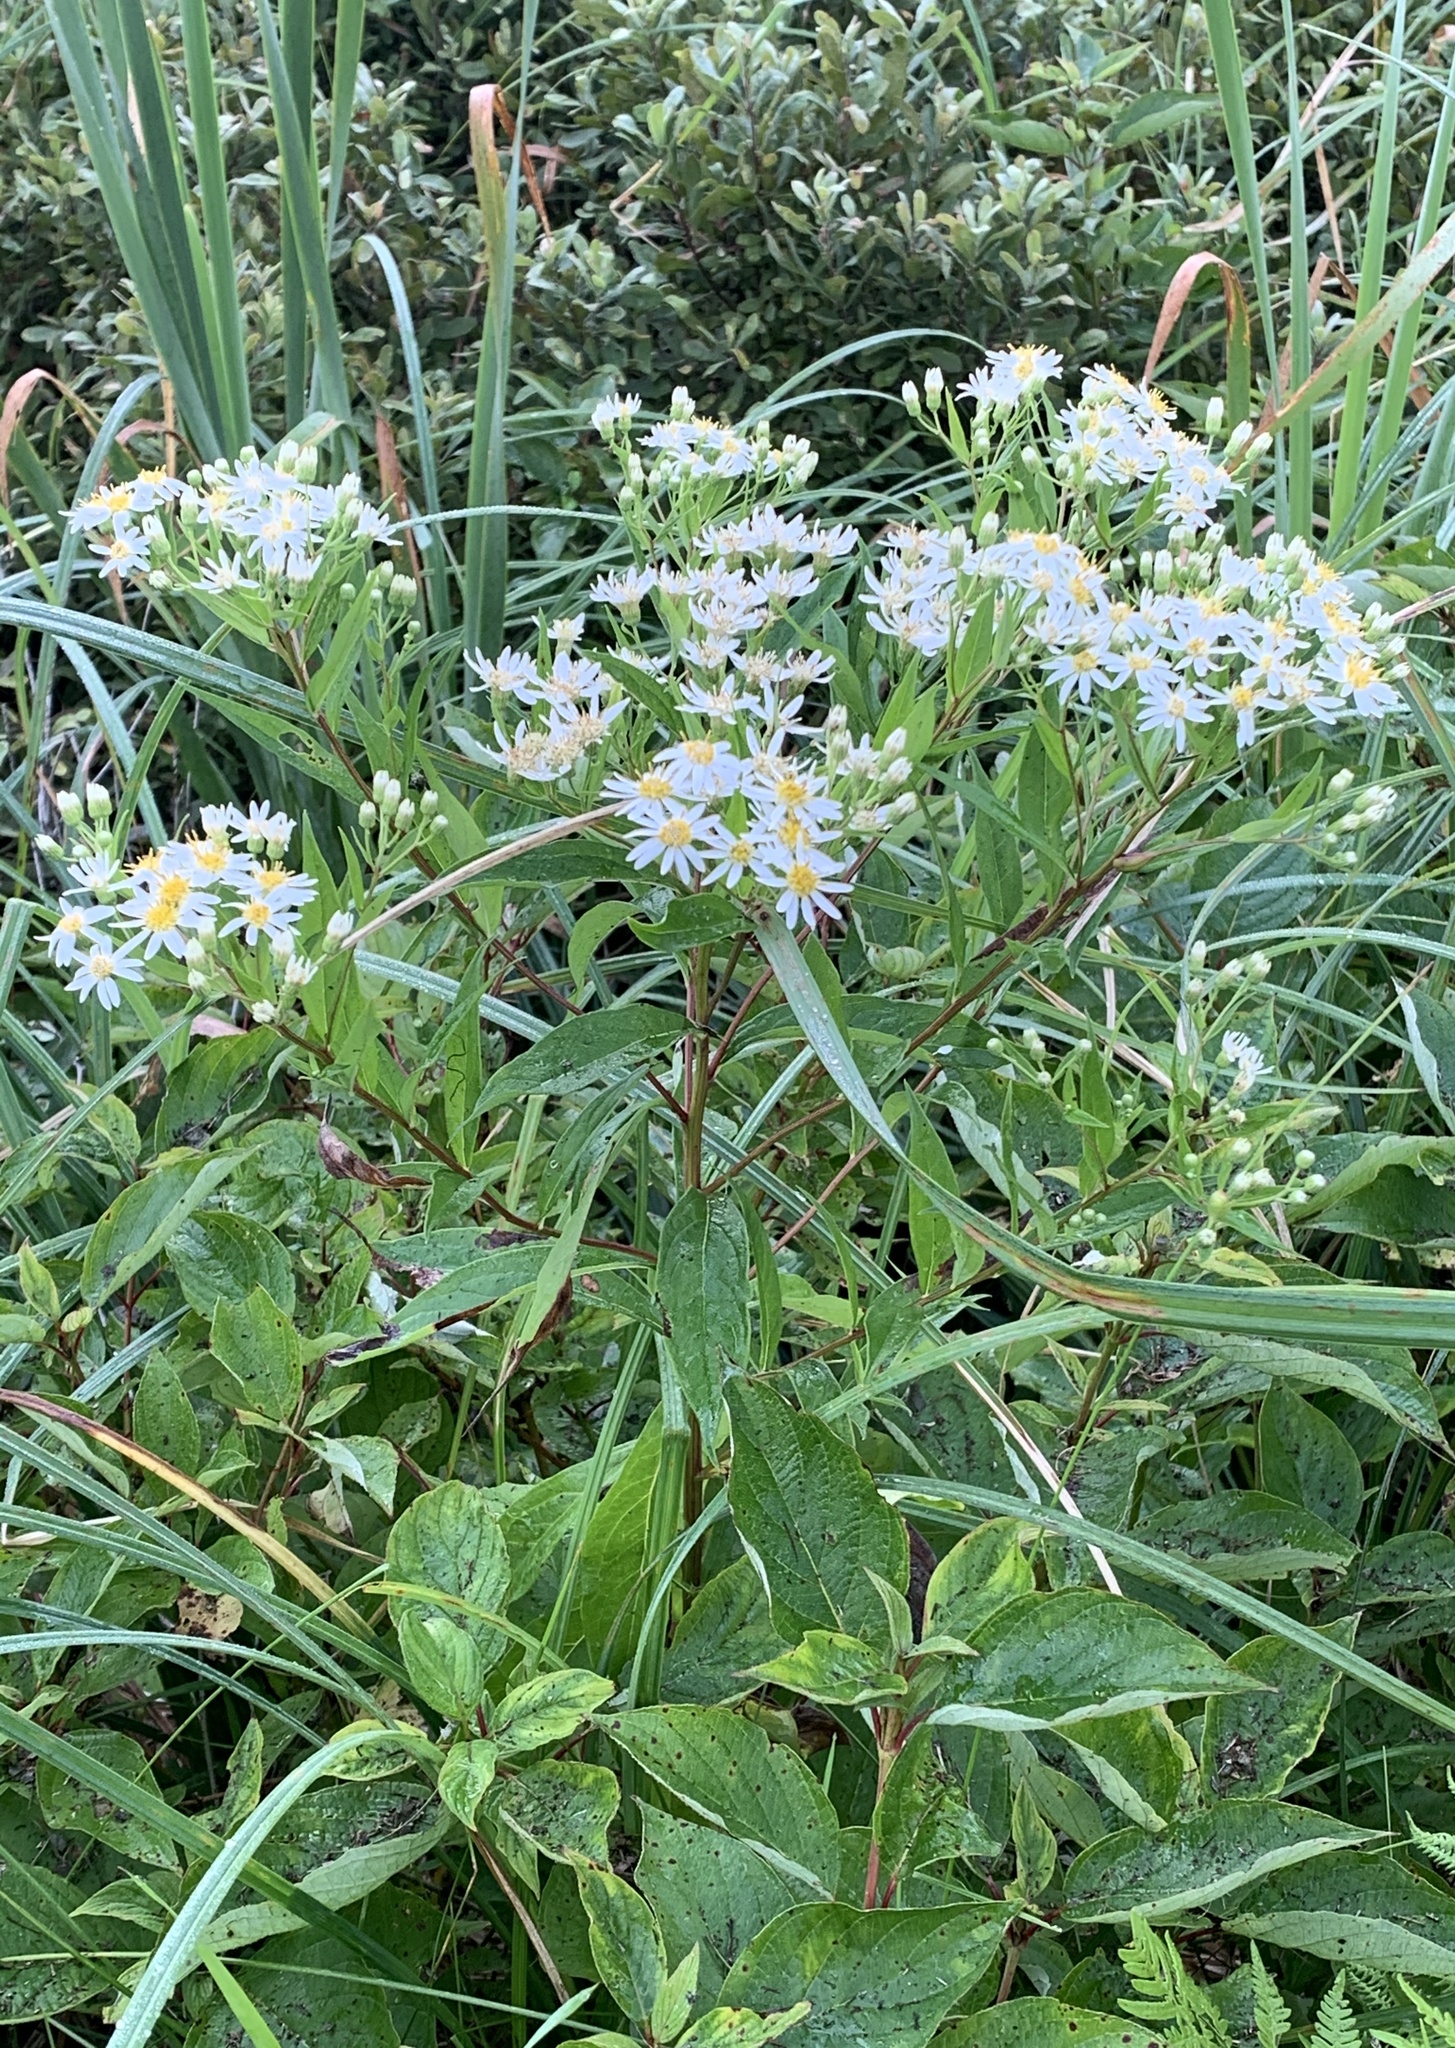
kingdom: Plantae
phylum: Tracheophyta
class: Magnoliopsida
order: Asterales
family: Asteraceae
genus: Doellingeria
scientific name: Doellingeria umbellata
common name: Flat-top white aster
